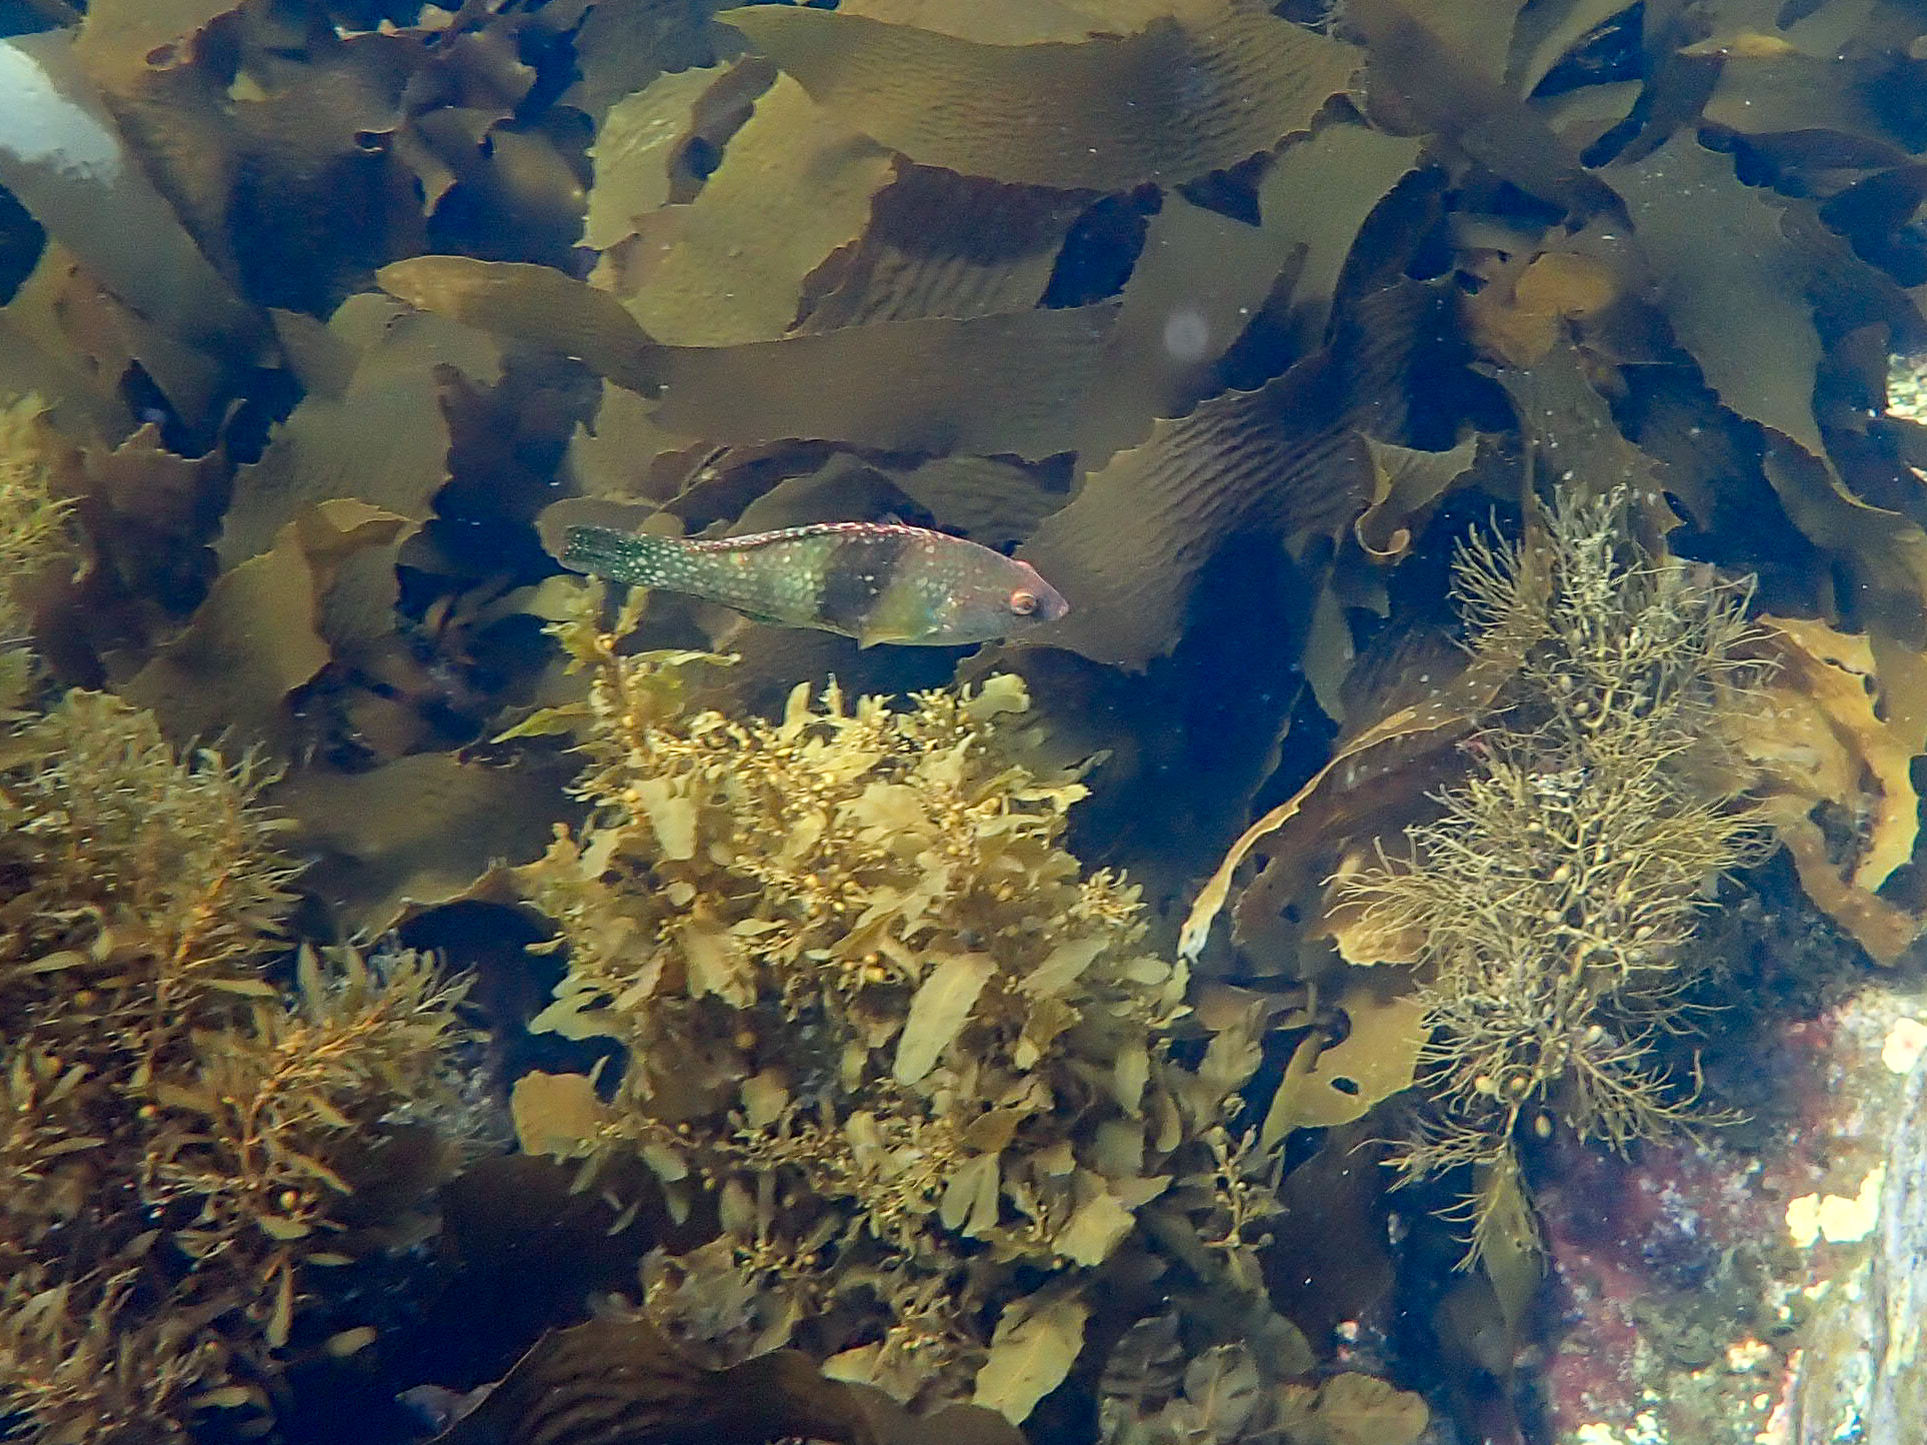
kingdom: Animalia
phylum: Chordata
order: Perciformes
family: Labridae
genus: Notolabrus
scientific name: Notolabrus tetricus
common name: Blue-throated parrotfish
